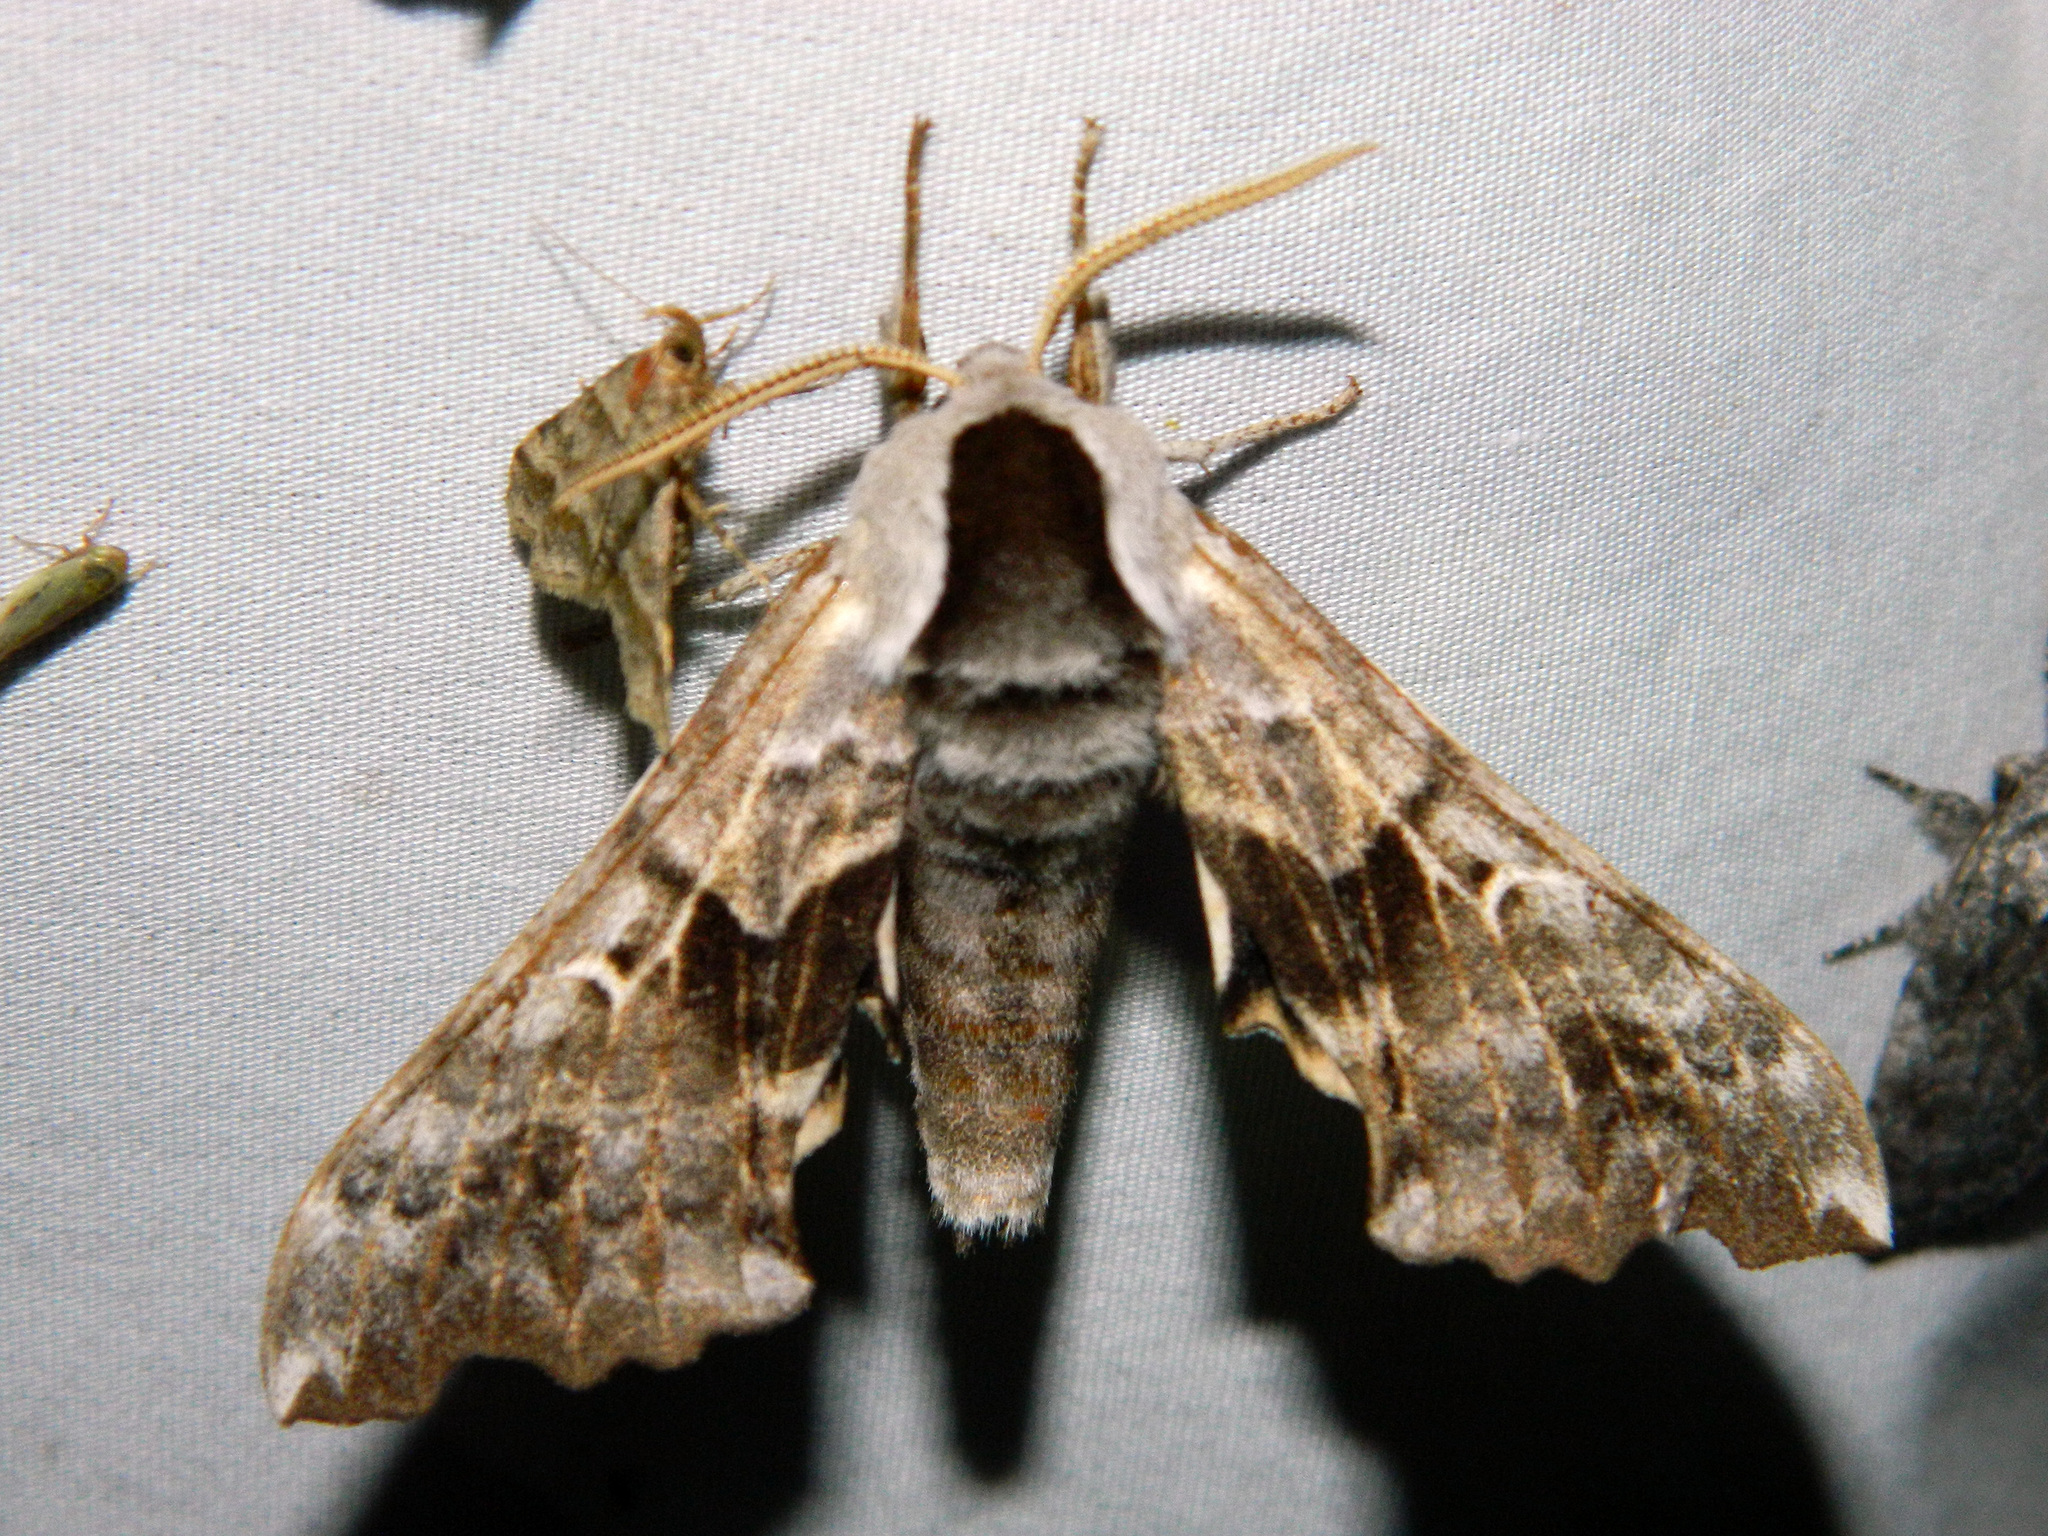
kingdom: Animalia
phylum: Arthropoda
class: Insecta
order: Lepidoptera
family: Sphingidae
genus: Smerinthus
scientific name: Smerinthus cerisyi
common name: Cerisy's sphinx moth
